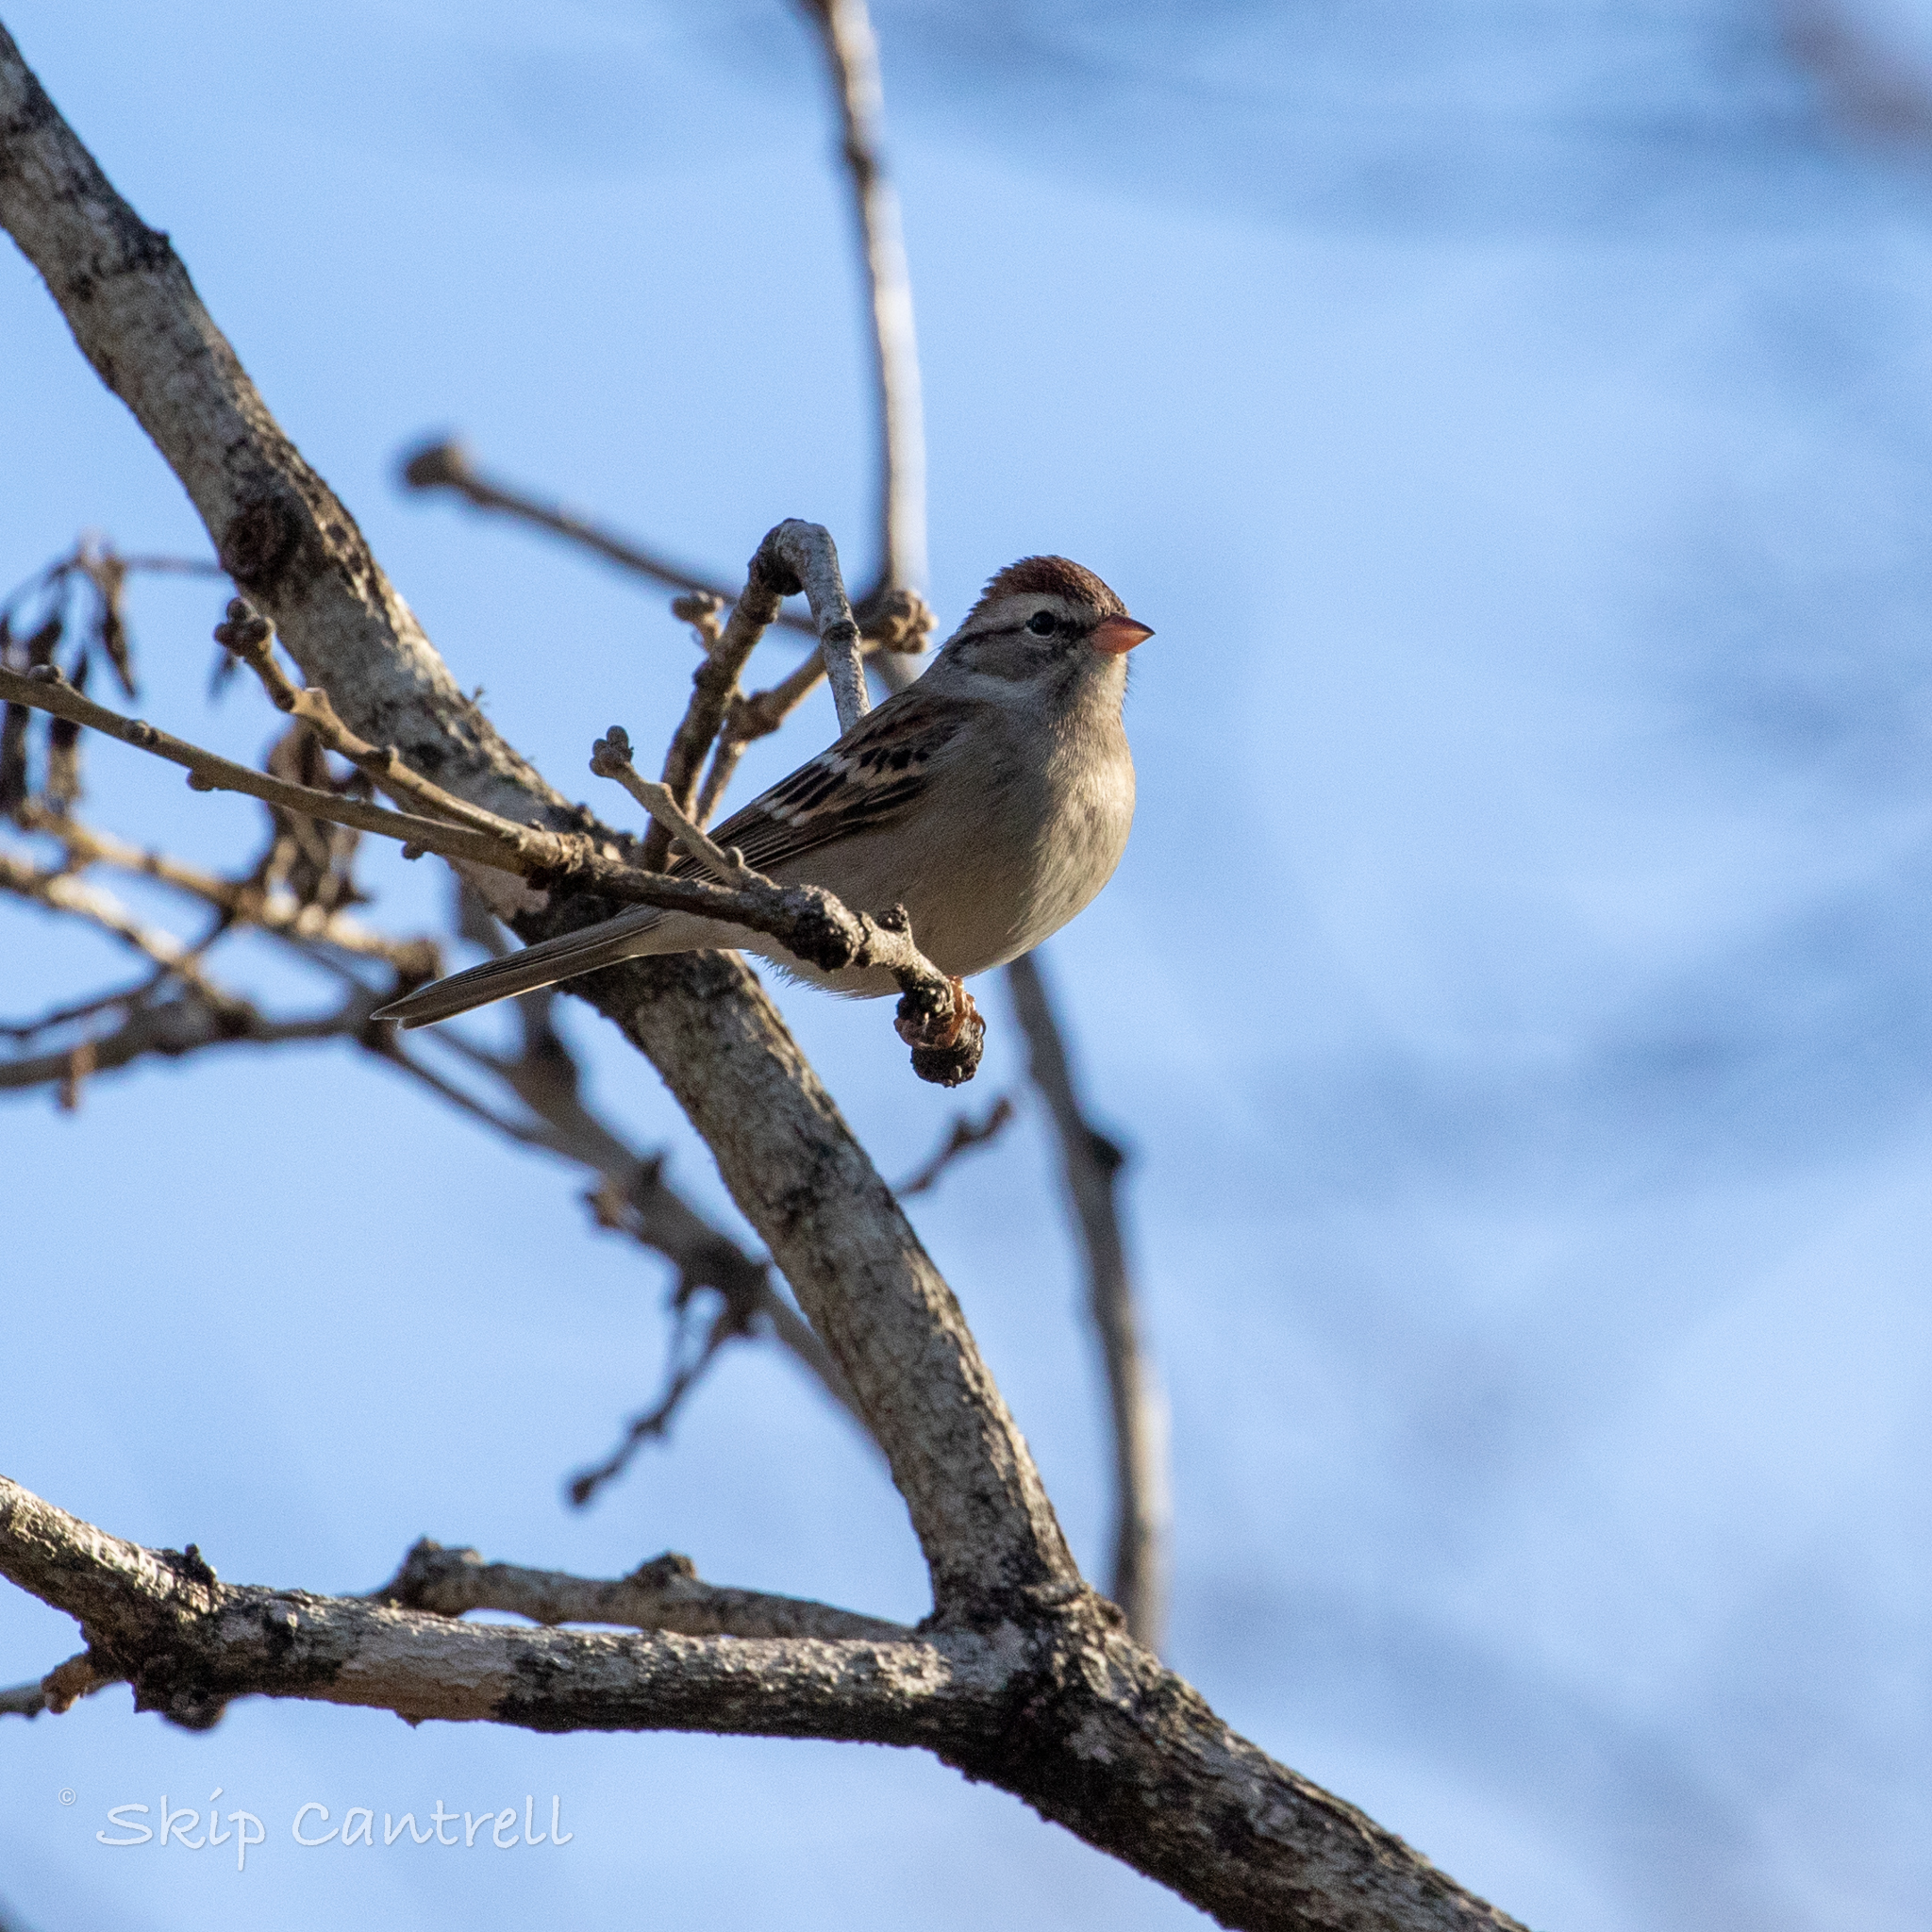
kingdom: Animalia
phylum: Chordata
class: Aves
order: Passeriformes
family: Passerellidae
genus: Spizella
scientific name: Spizella passerina
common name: Chipping sparrow
